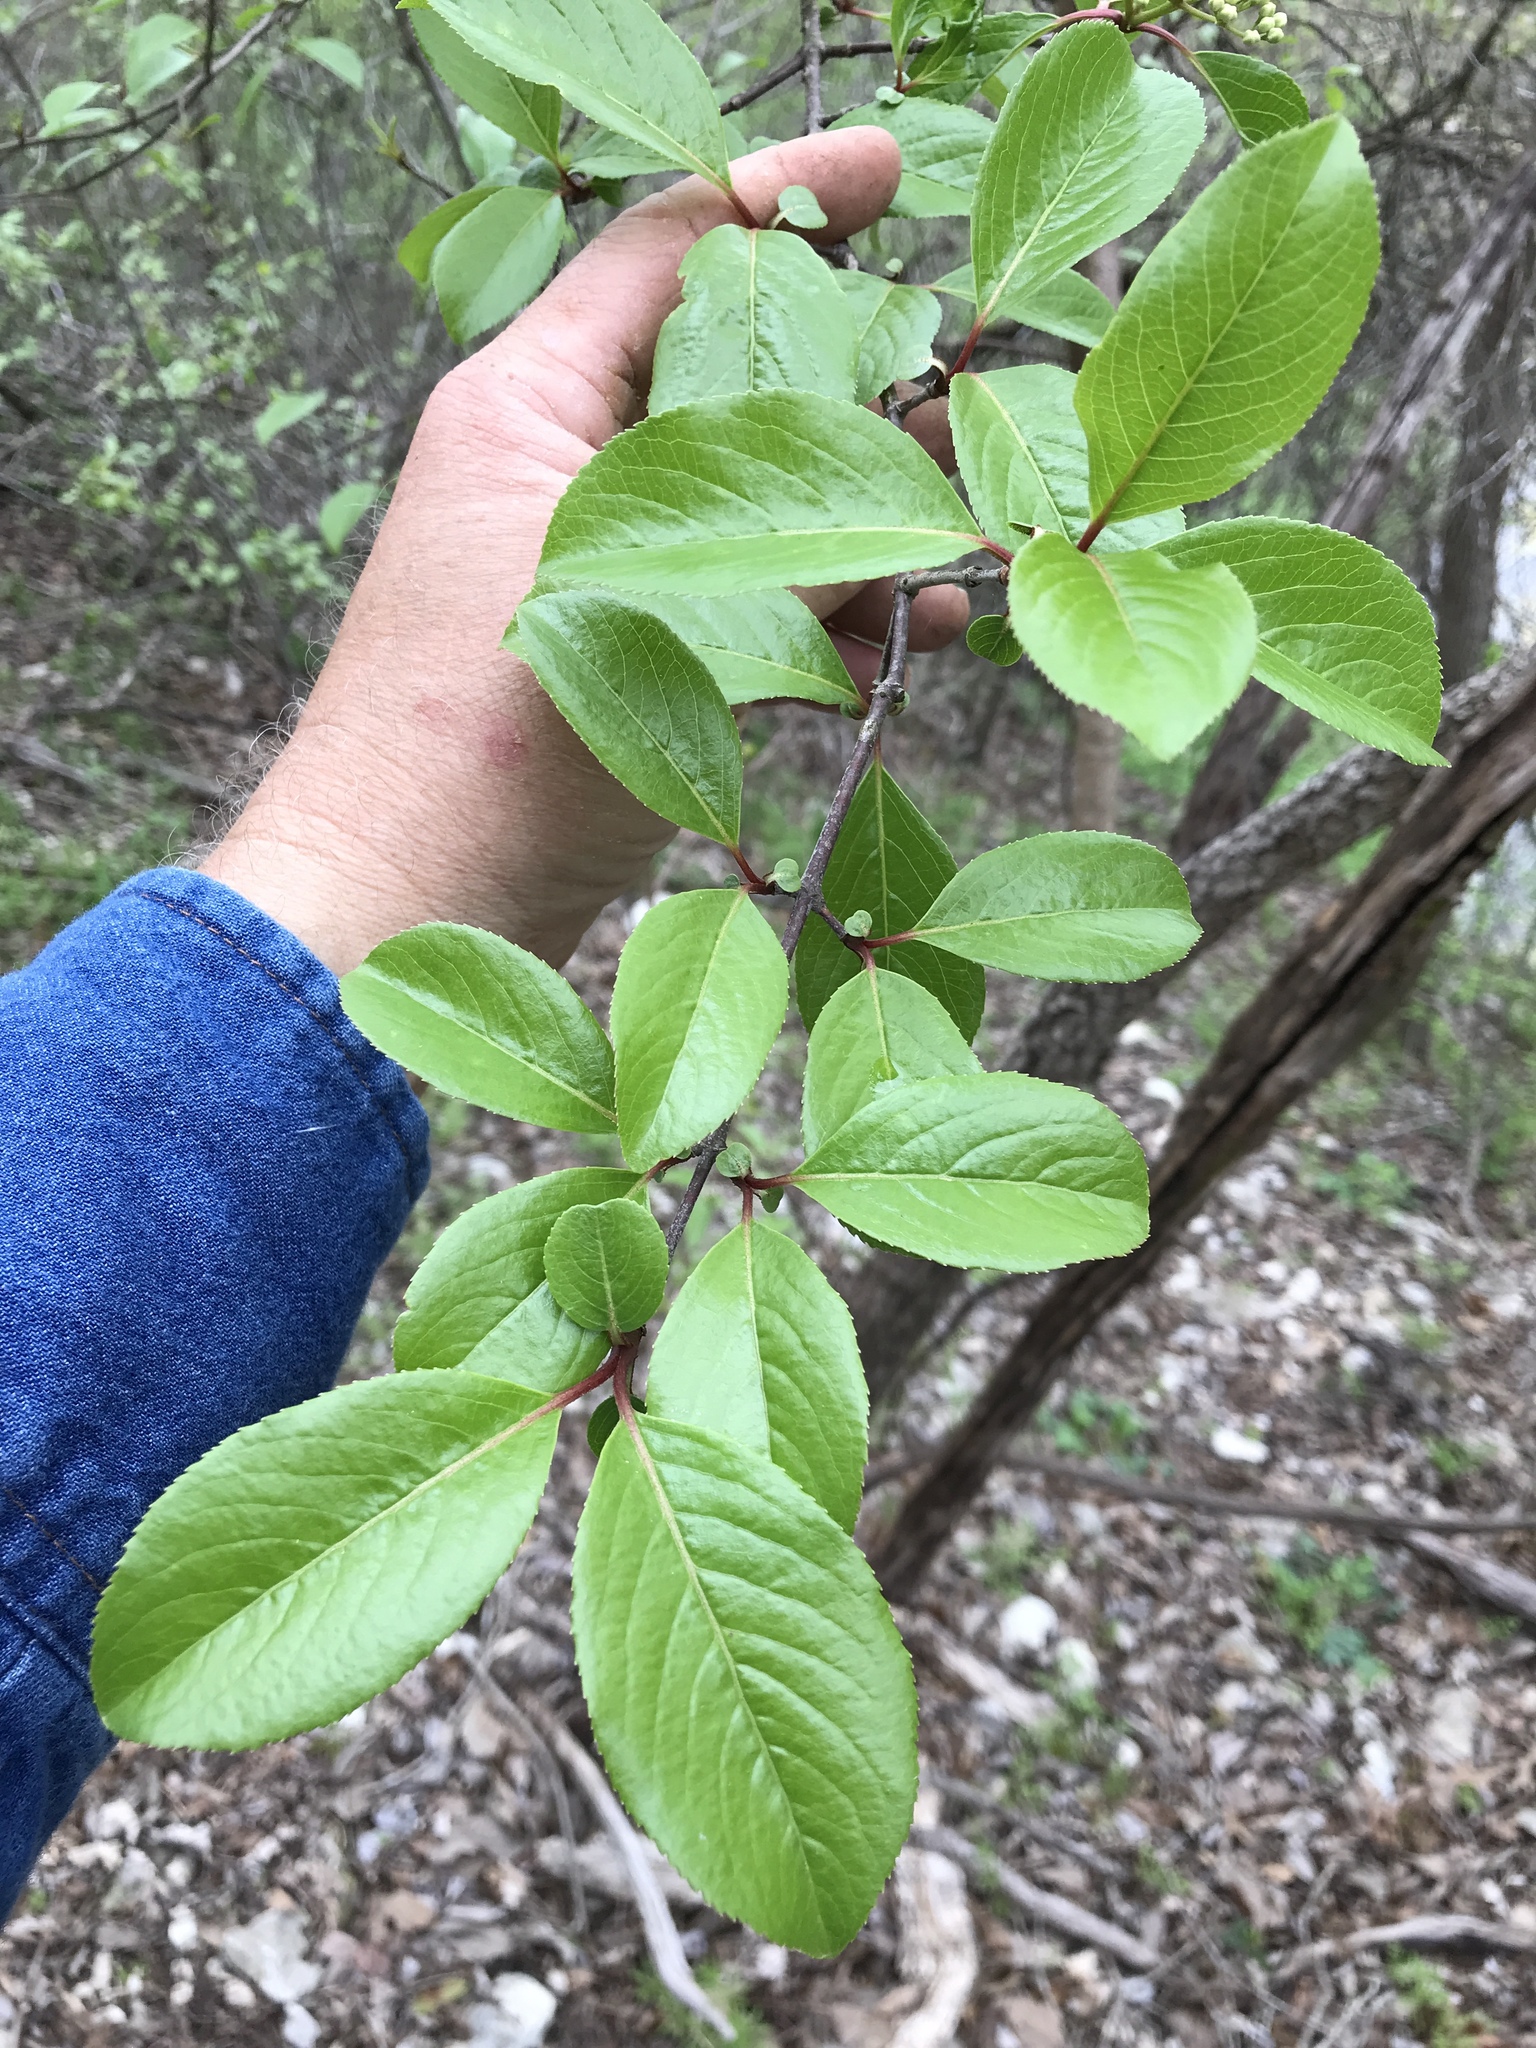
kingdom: Plantae
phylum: Tracheophyta
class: Magnoliopsida
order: Dipsacales
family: Viburnaceae
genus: Viburnum
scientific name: Viburnum rufidulum
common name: Blue haw
